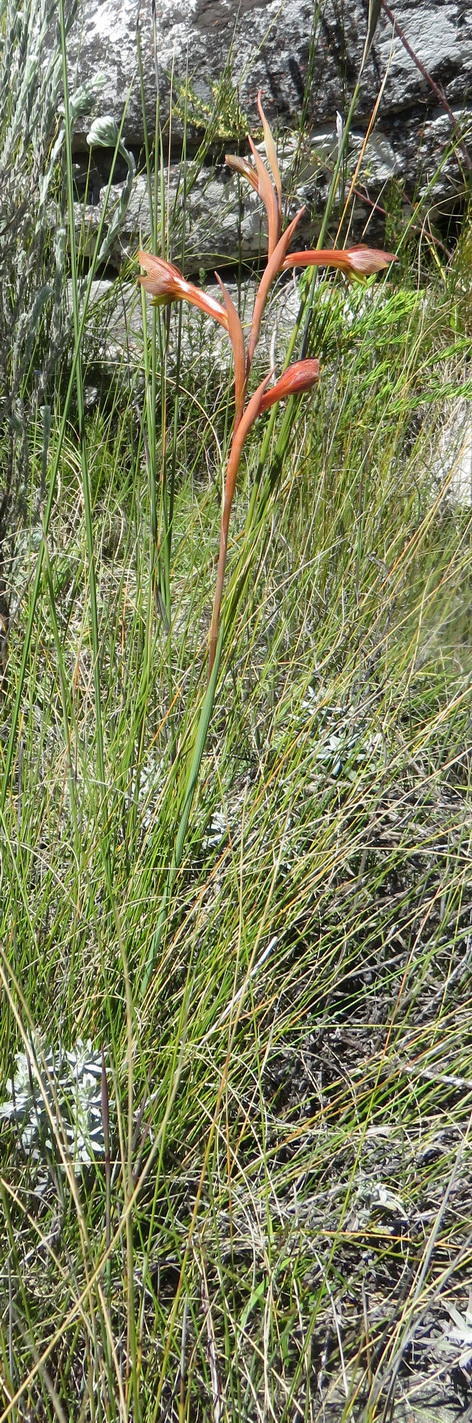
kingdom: Plantae
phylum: Tracheophyta
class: Liliopsida
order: Asparagales
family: Iridaceae
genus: Gladiolus
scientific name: Gladiolus fourcadei
